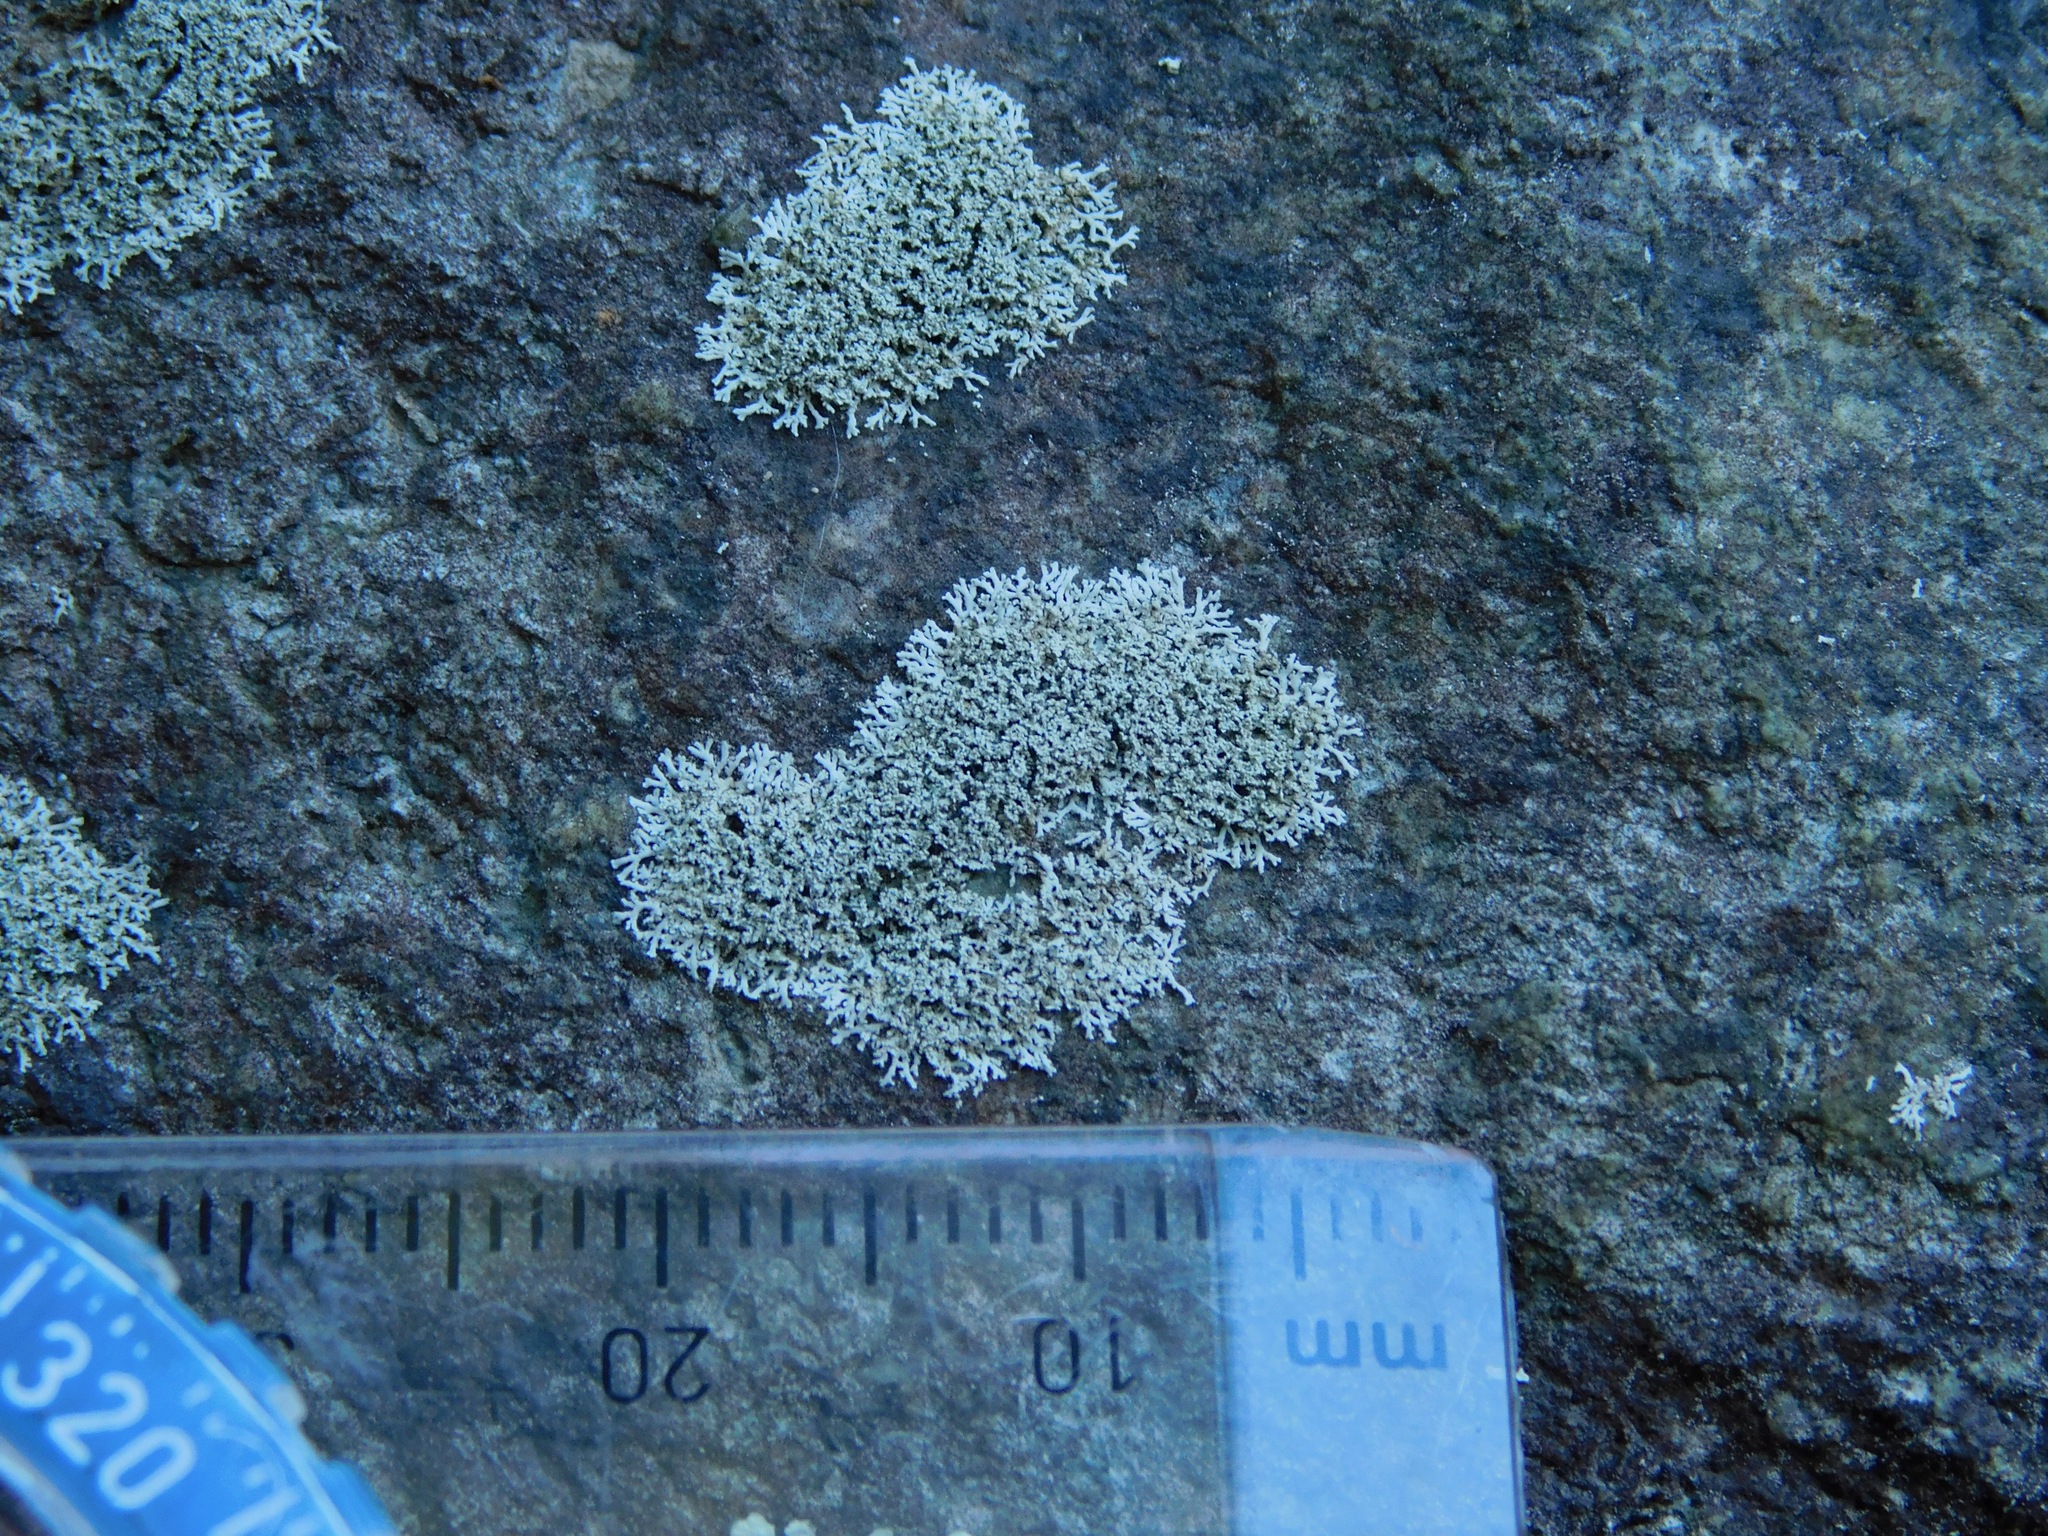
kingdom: Fungi
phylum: Ascomycota
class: Lecanoromycetes
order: Caliciales
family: Physciaceae
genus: Physcia
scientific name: Physcia subtilis
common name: Slender rosette lichen
